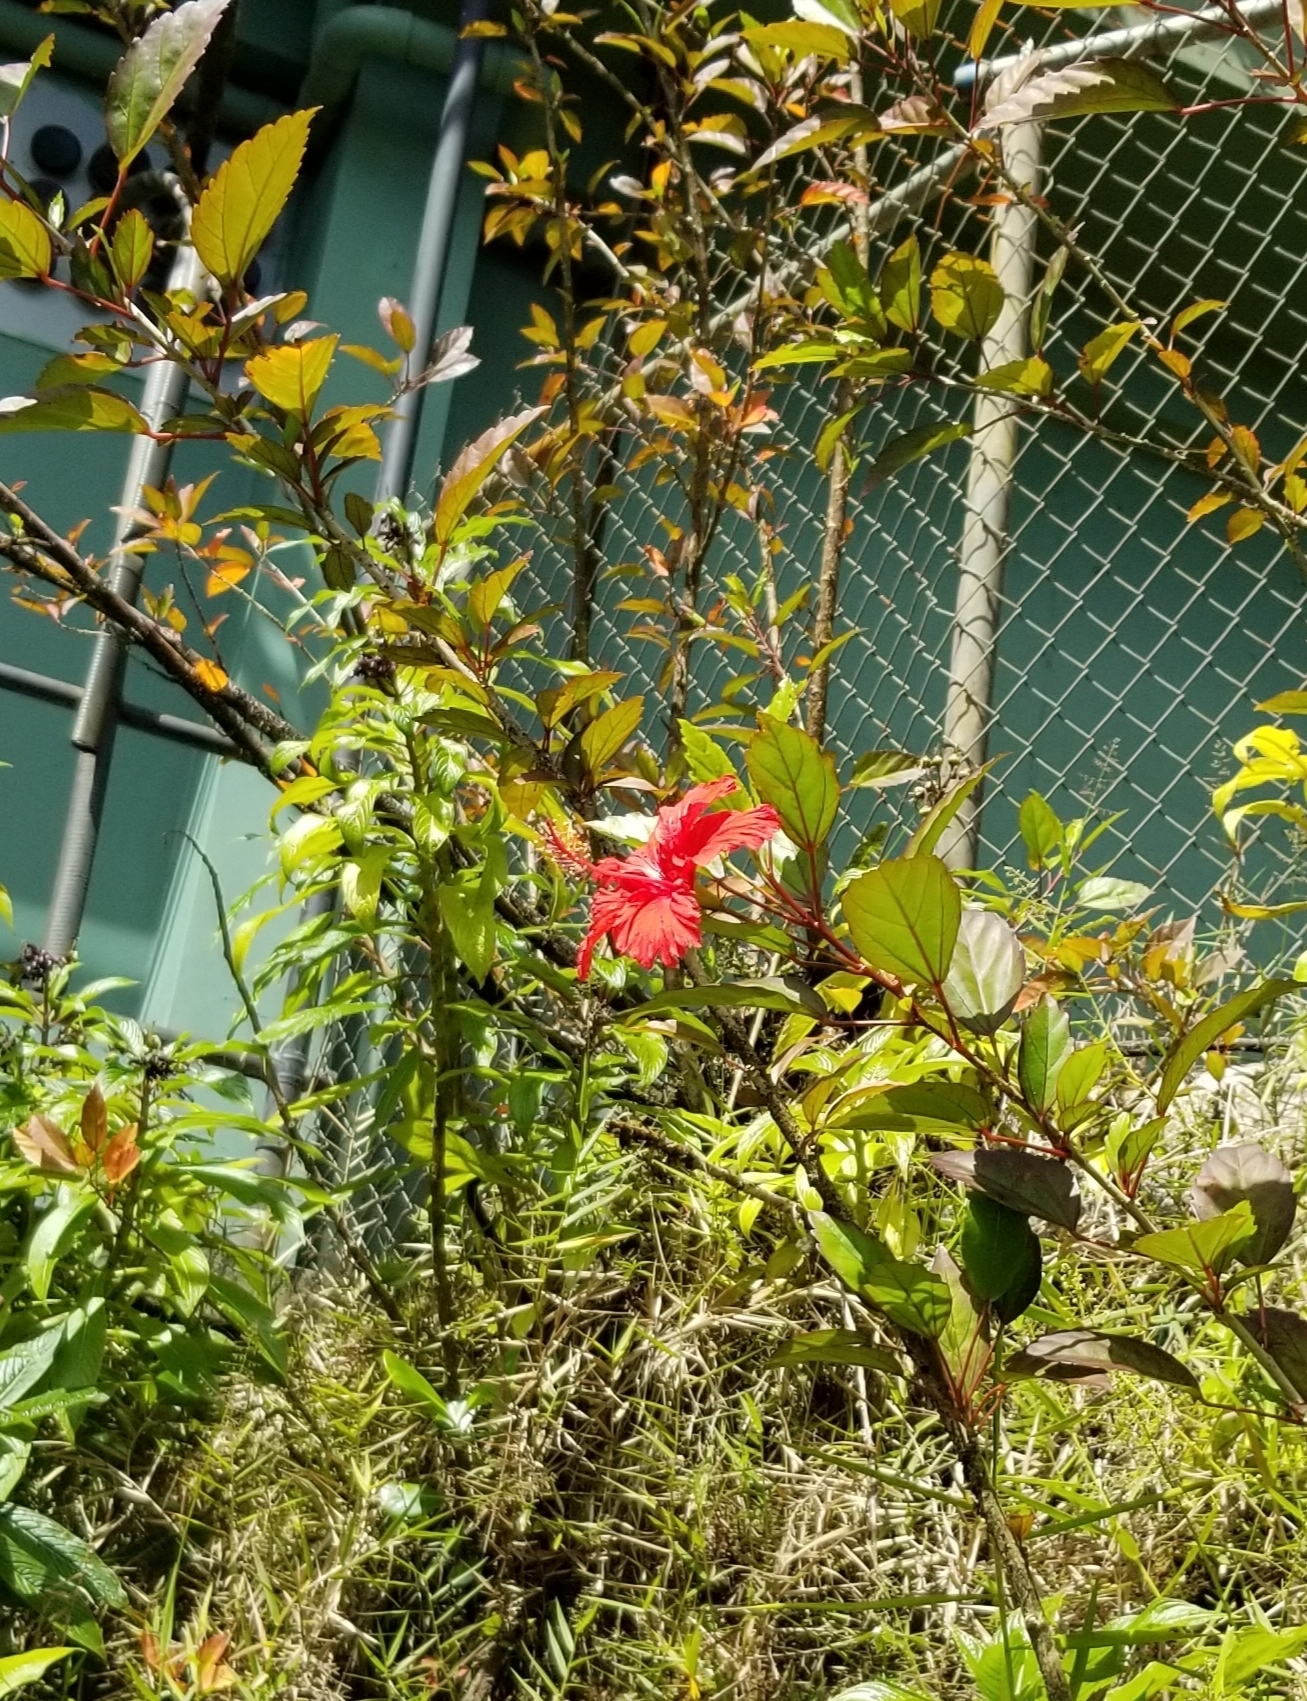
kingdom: Plantae
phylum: Tracheophyta
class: Magnoliopsida
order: Malvales
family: Malvaceae
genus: Hibiscus
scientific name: Hibiscus archeri
